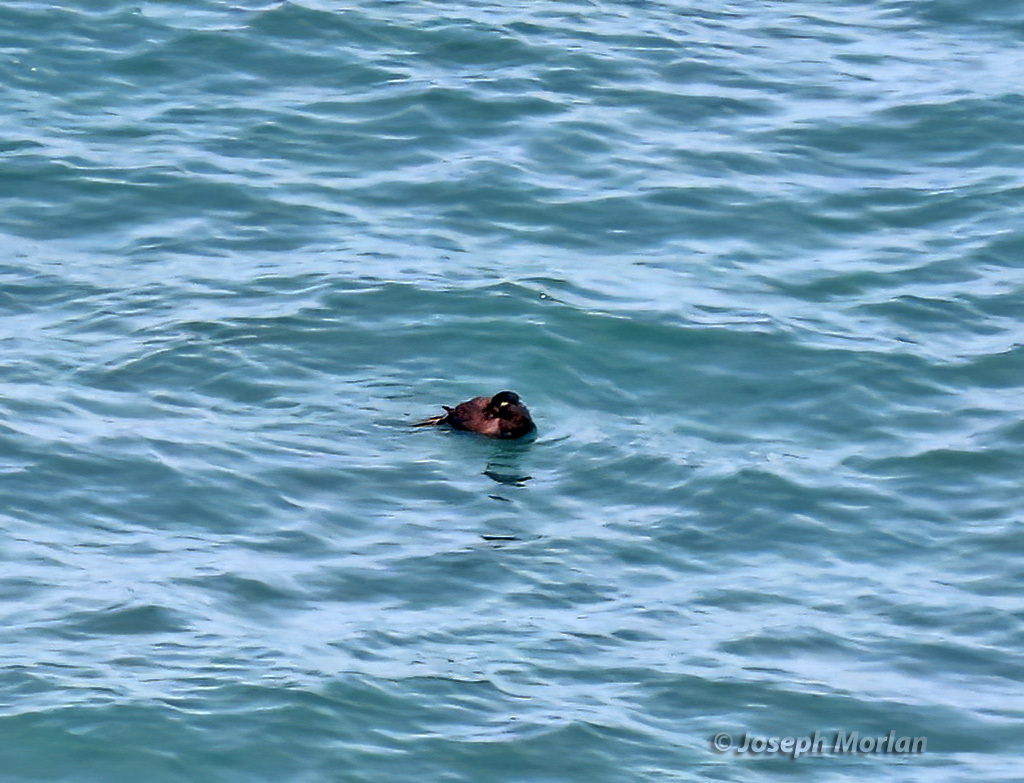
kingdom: Animalia
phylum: Chordata
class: Aves
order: Anseriformes
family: Anatidae
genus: Melanitta
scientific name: Melanitta deglandi
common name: White-winged scoter
